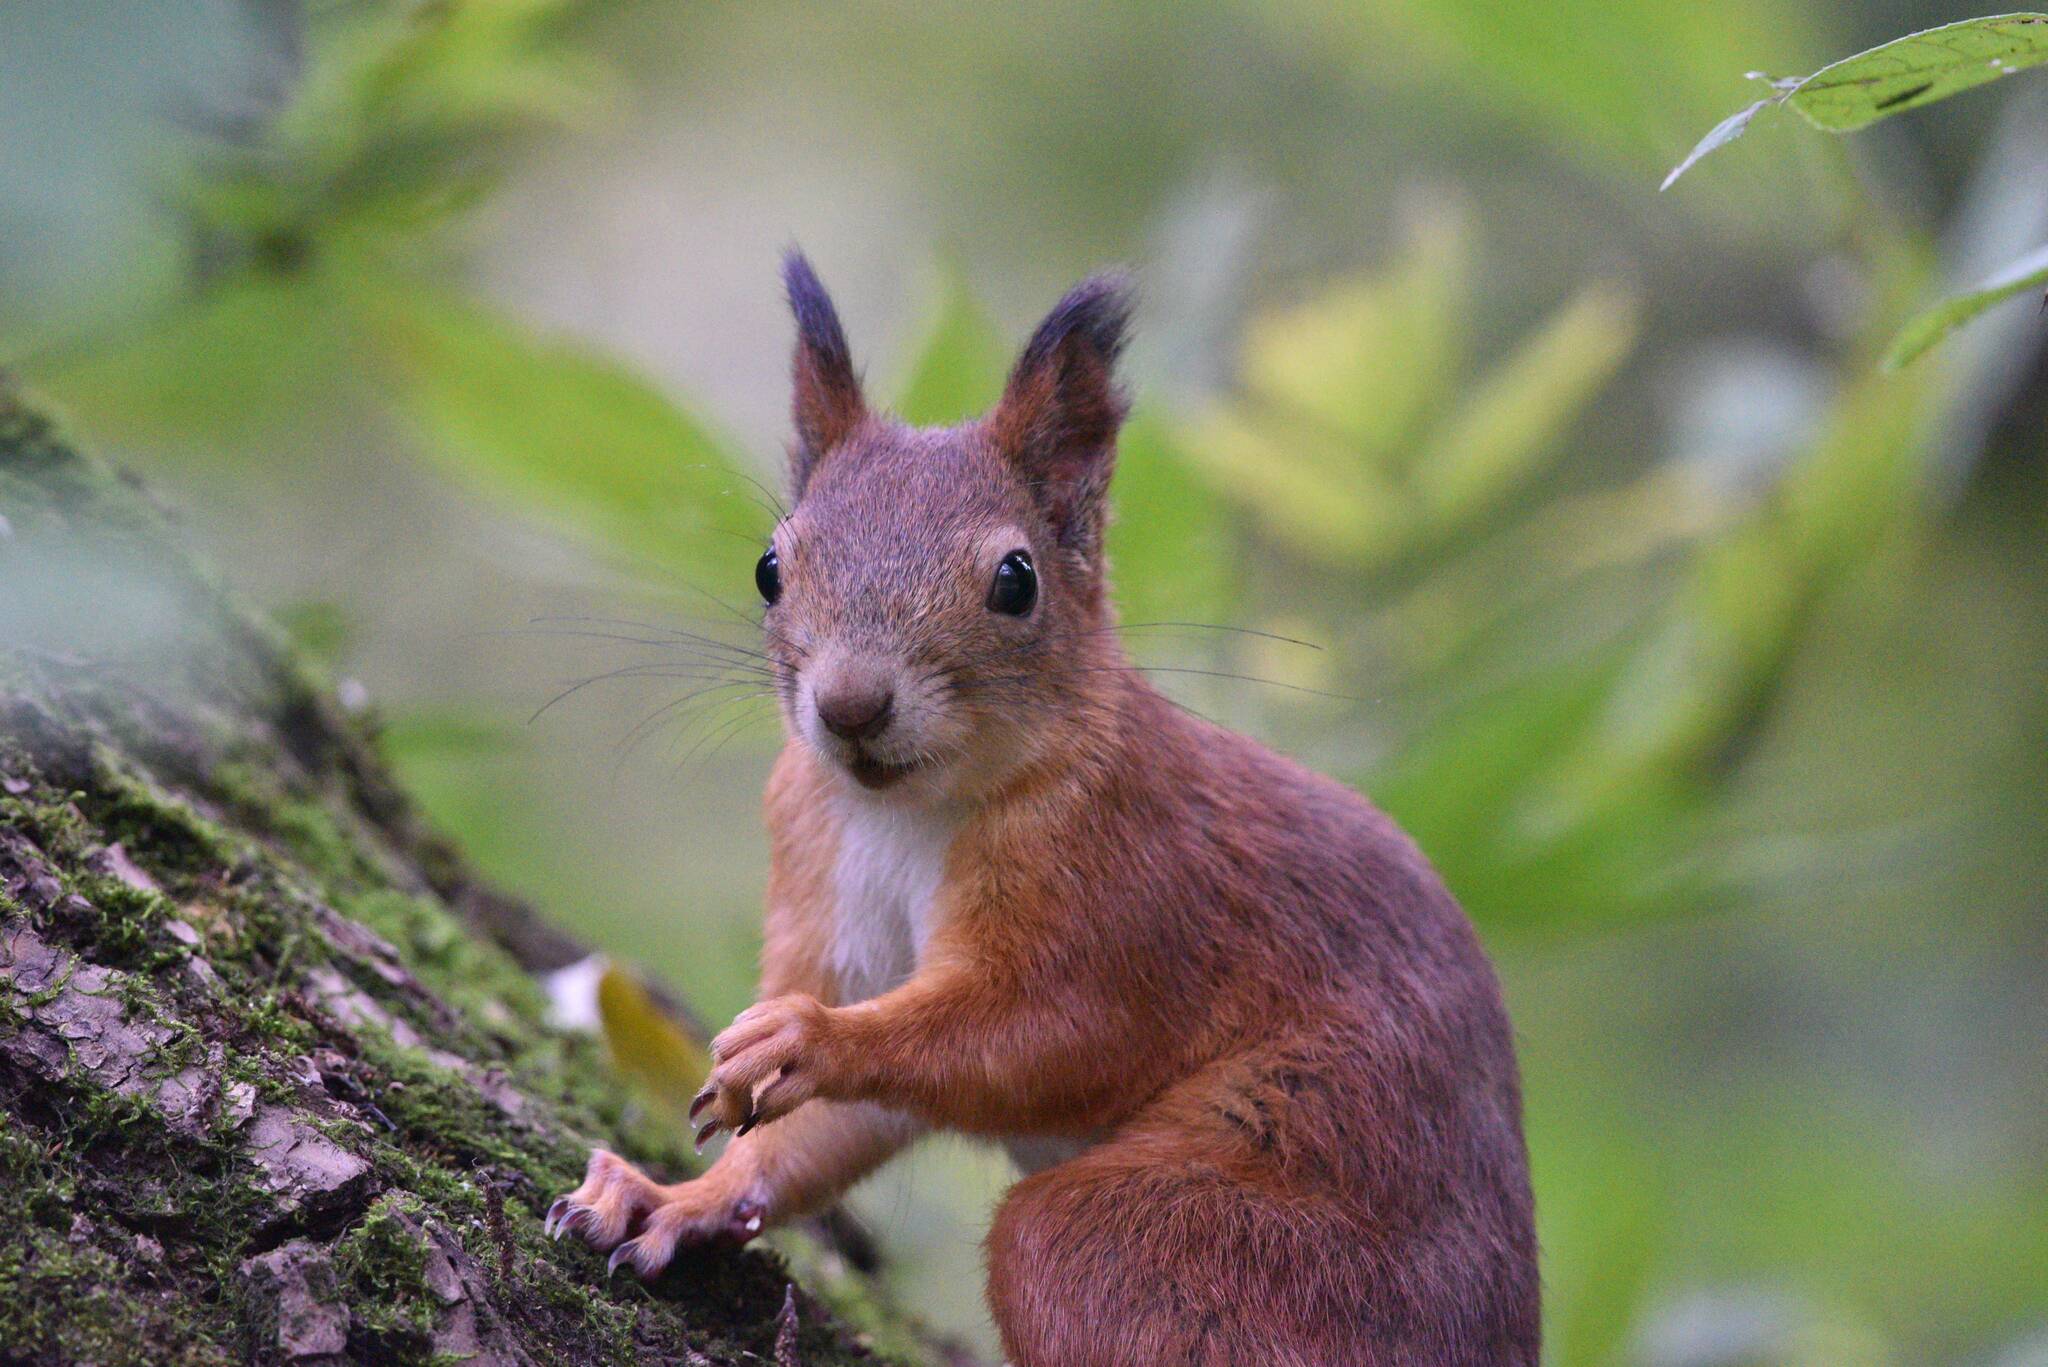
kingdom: Animalia
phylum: Chordata
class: Mammalia
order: Rodentia
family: Sciuridae
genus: Sciurus
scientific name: Sciurus vulgaris
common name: Eurasian red squirrel
